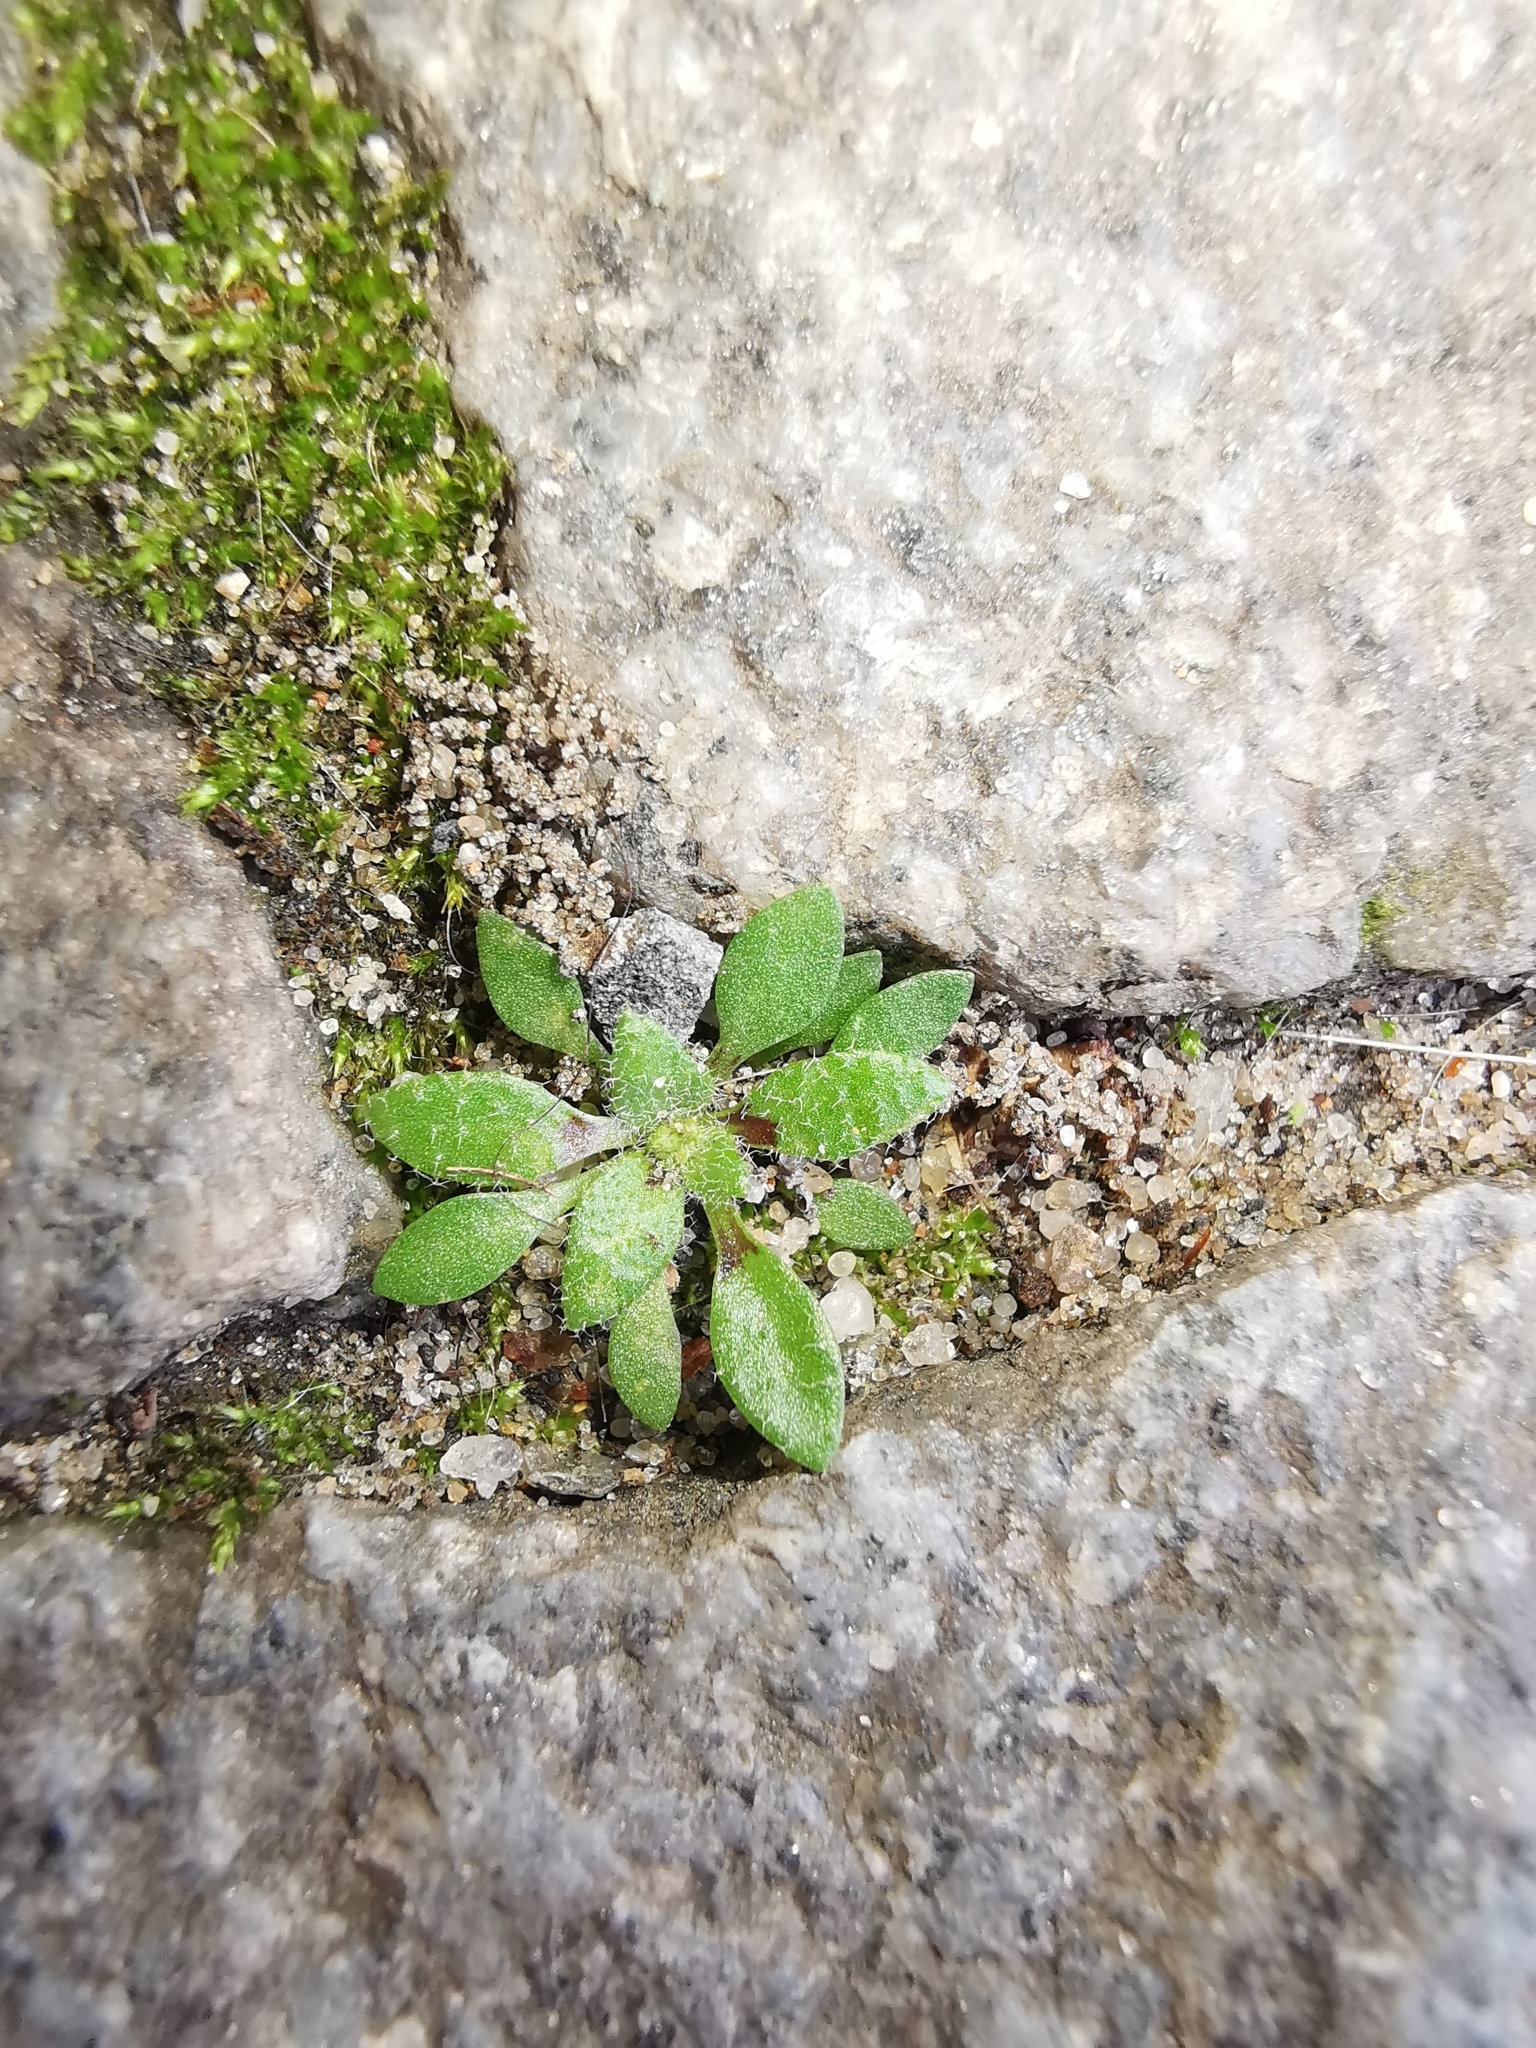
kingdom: Plantae
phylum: Tracheophyta
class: Magnoliopsida
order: Brassicales
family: Brassicaceae
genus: Draba
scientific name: Draba verna
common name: Spring draba
